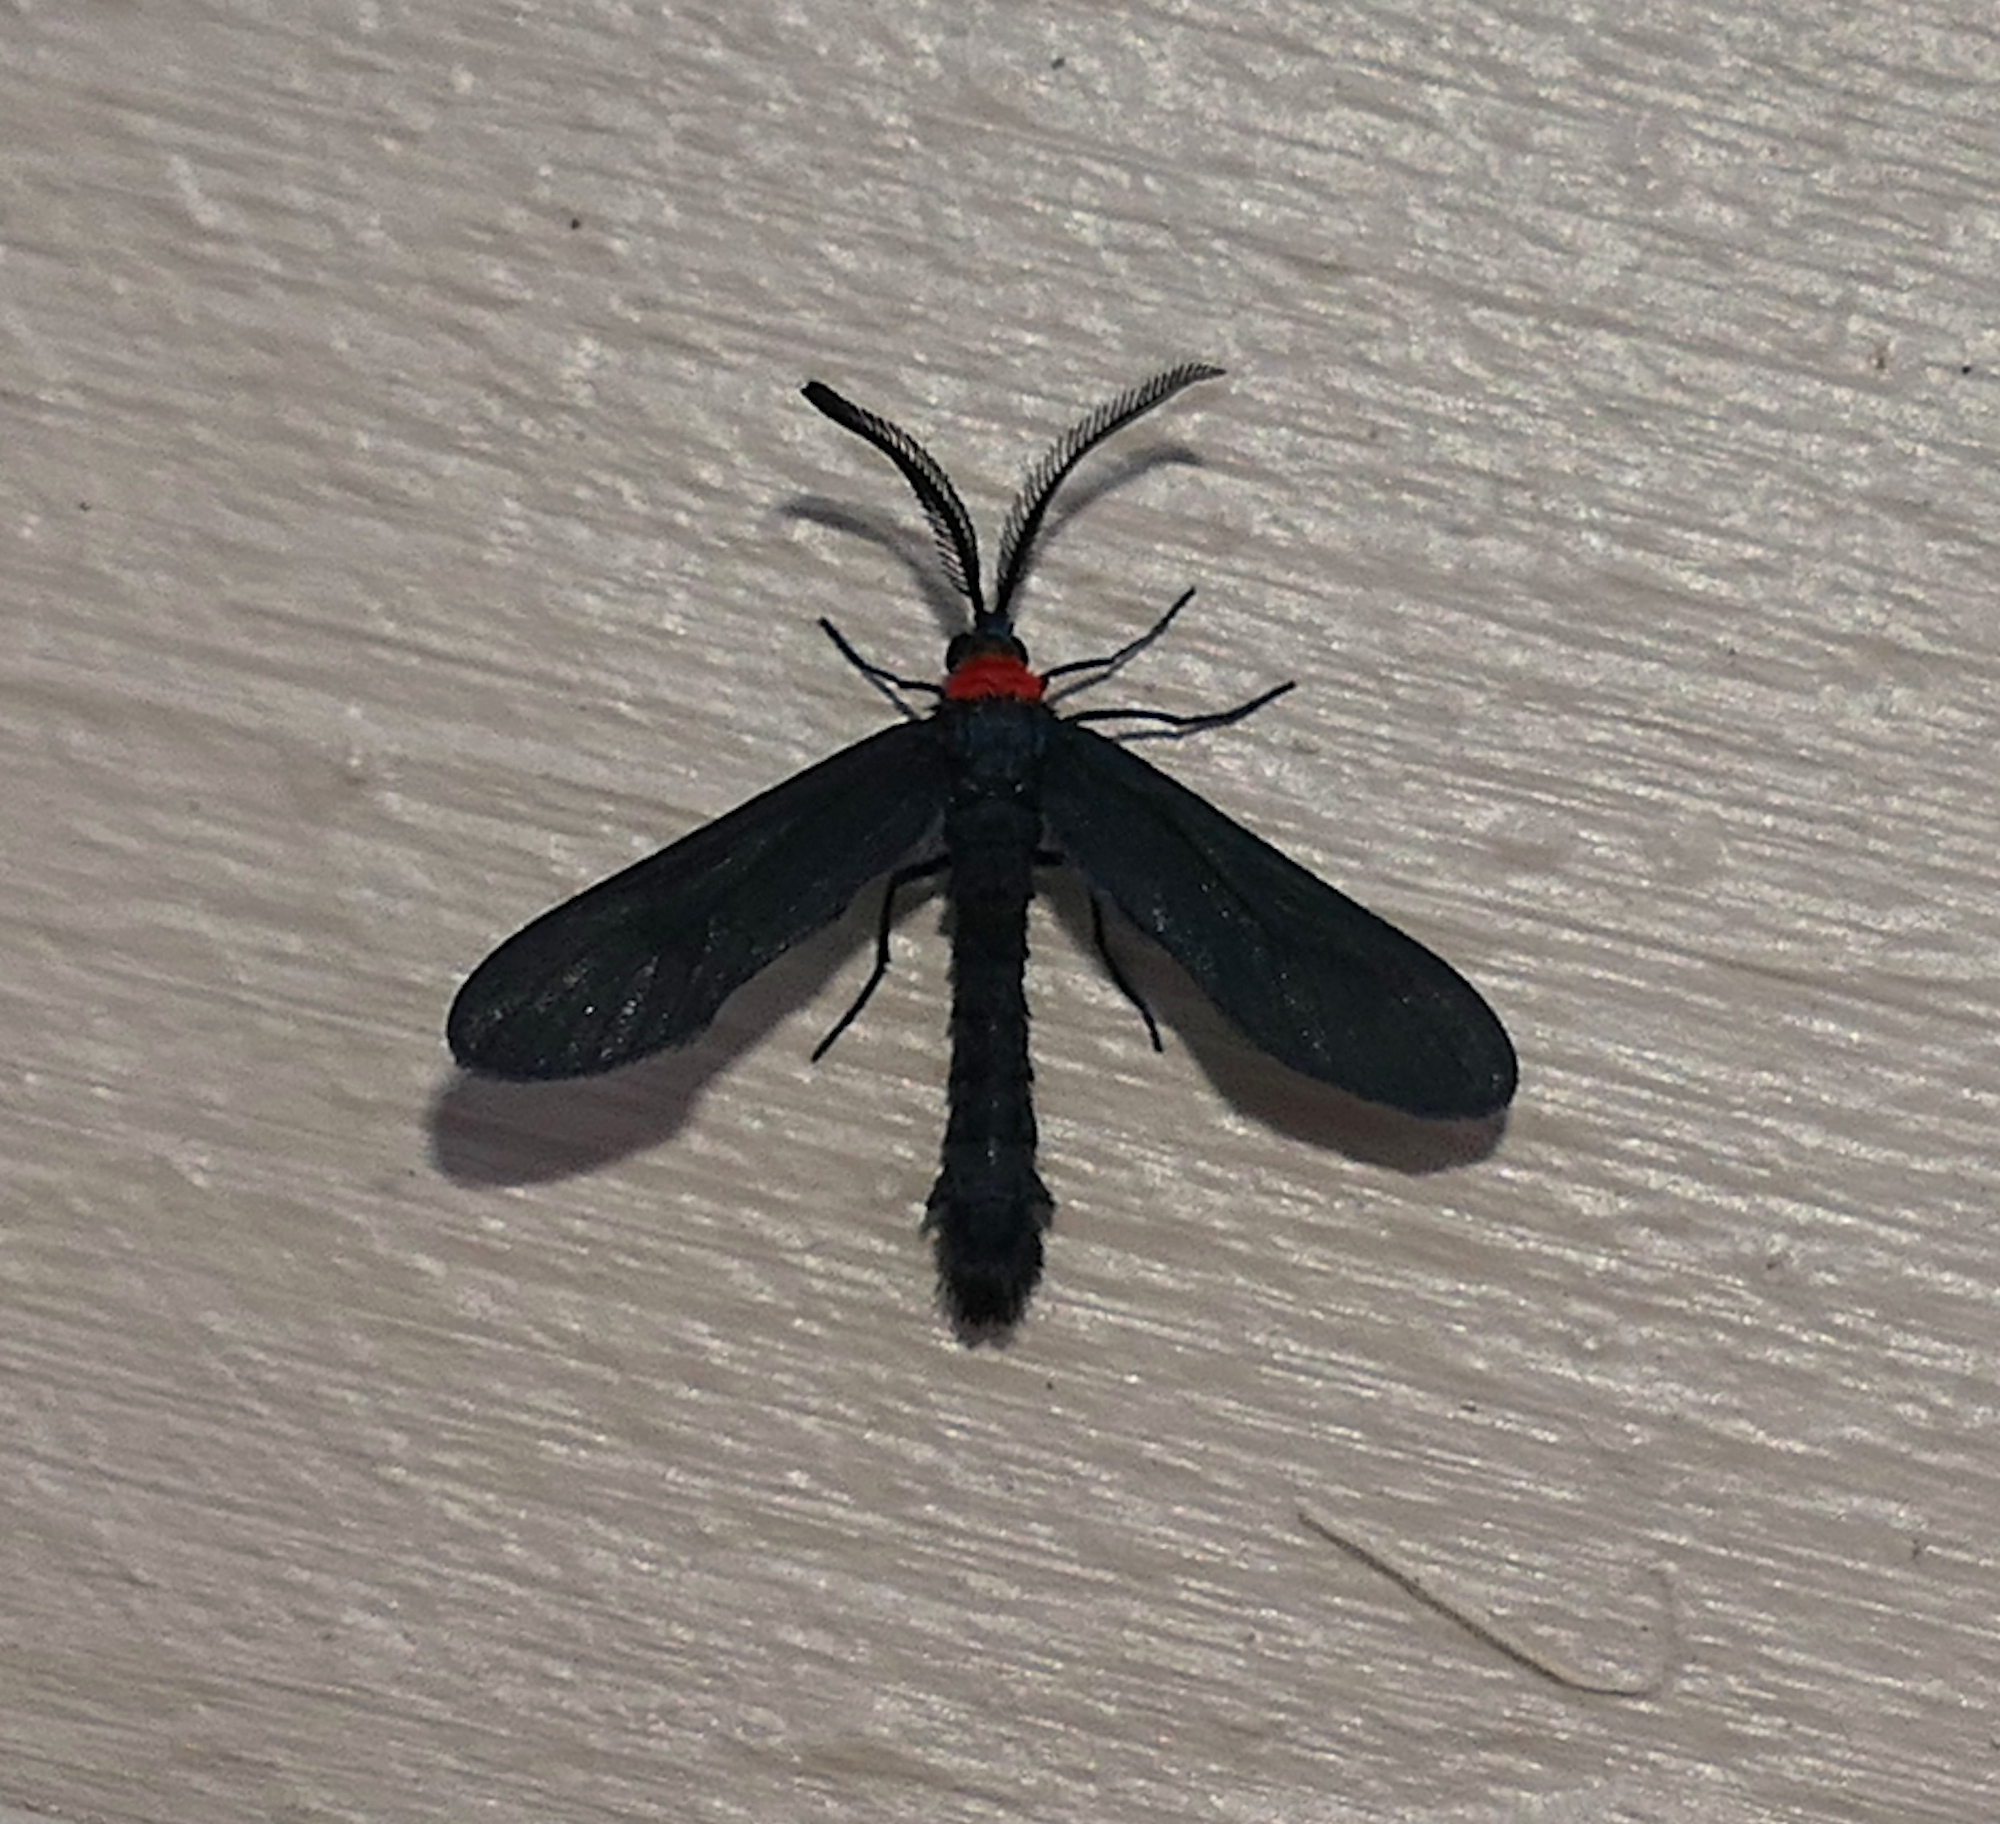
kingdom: Animalia
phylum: Arthropoda
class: Insecta
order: Lepidoptera
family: Zygaenidae
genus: Harrisina
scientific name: Harrisina americana
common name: Grapeleaf skeletonizer moth
